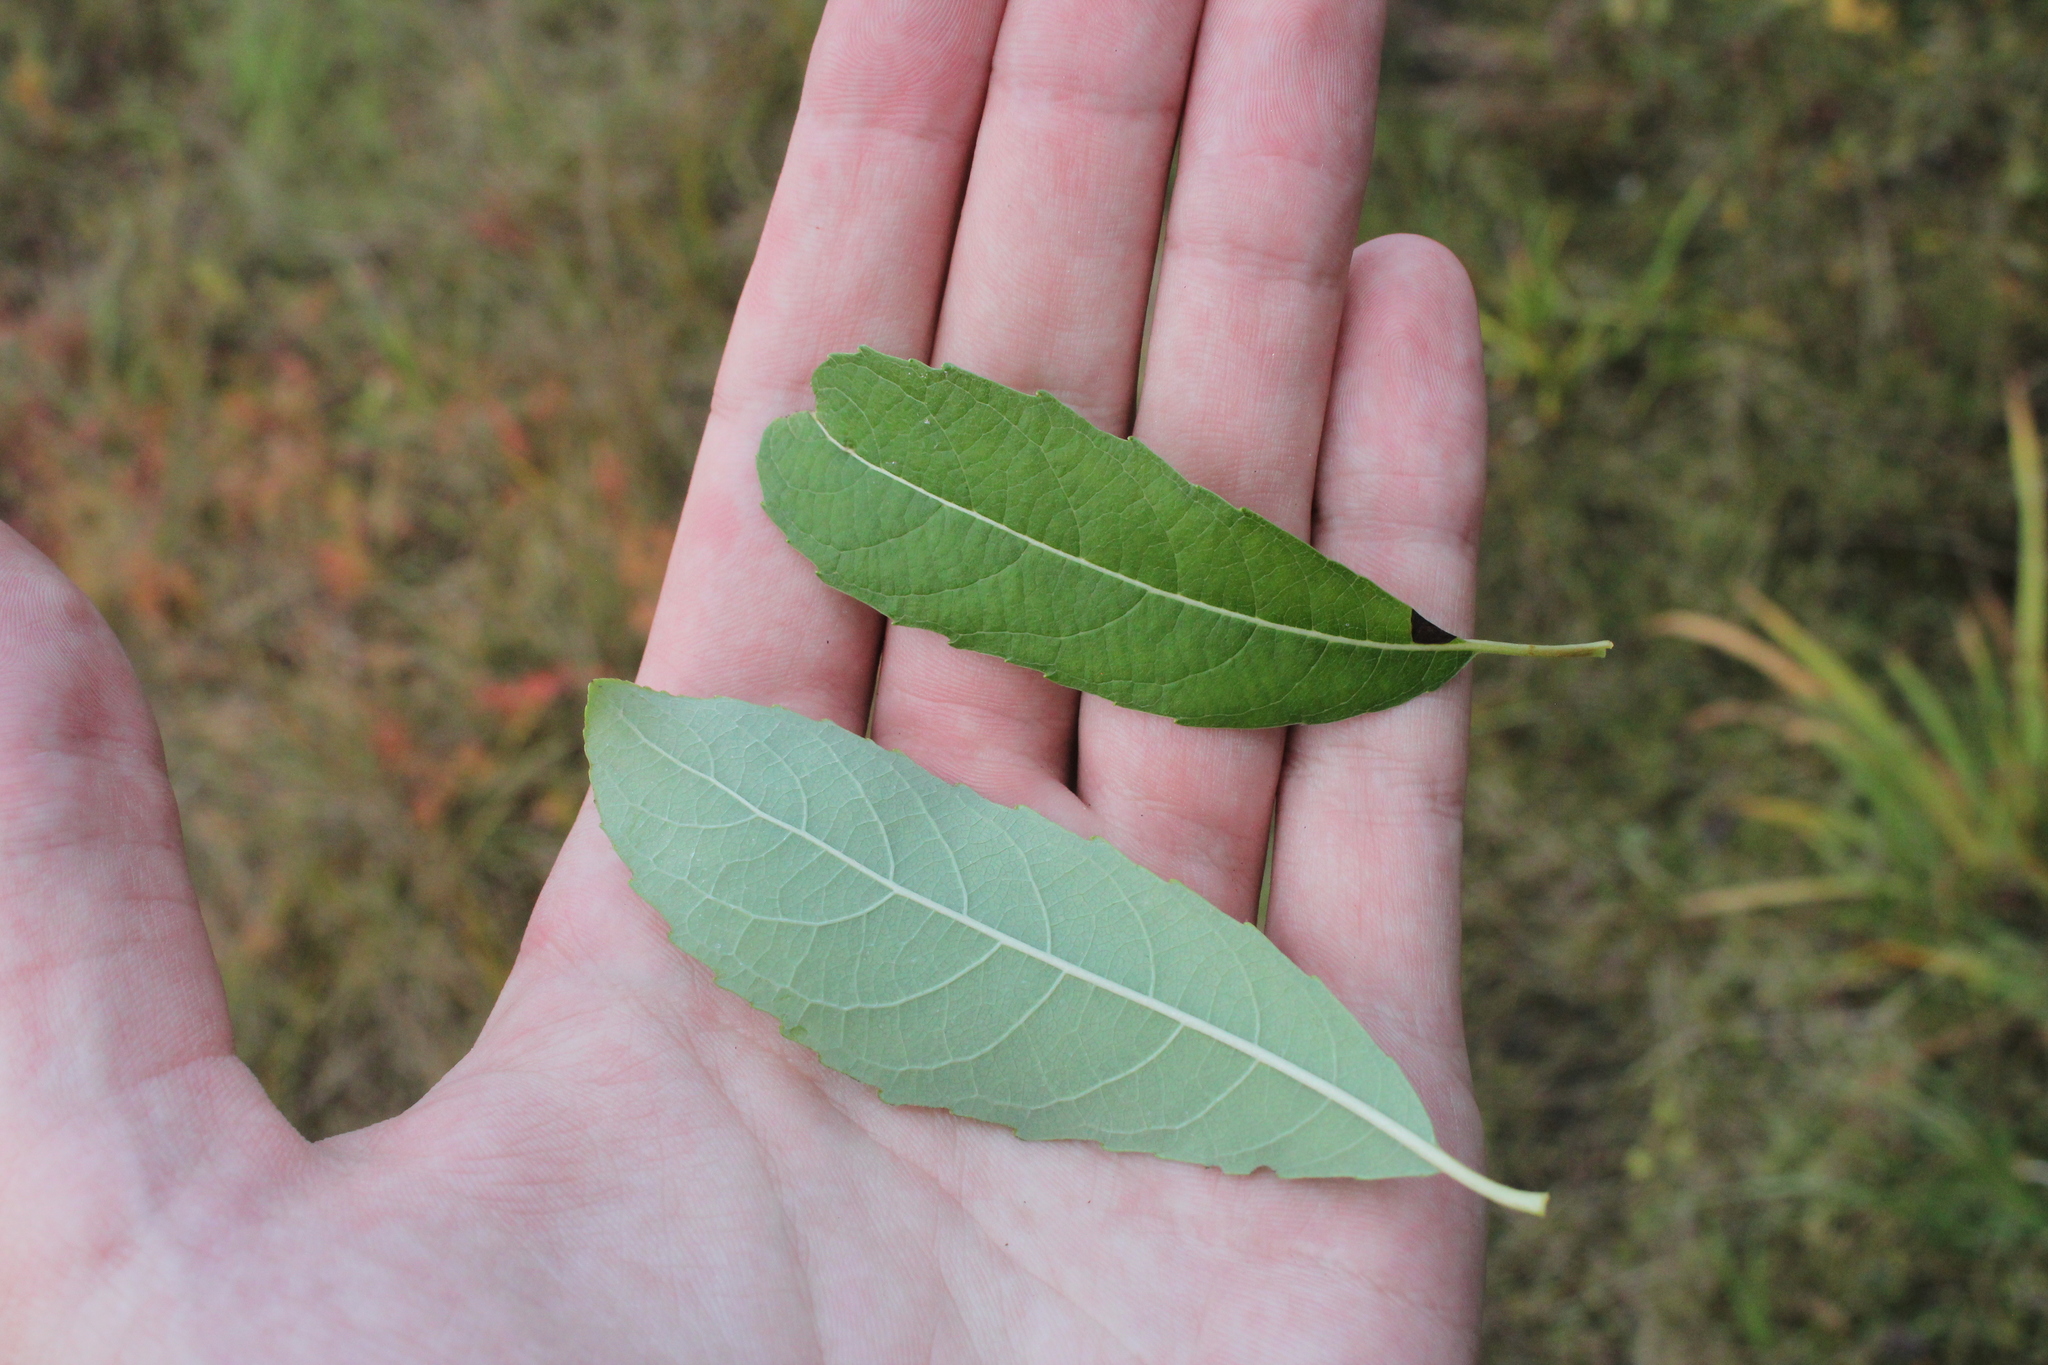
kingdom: Plantae
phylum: Tracheophyta
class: Magnoliopsida
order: Malpighiales
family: Salicaceae
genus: Salix
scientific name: Salix discolor
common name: Glaucous willow
